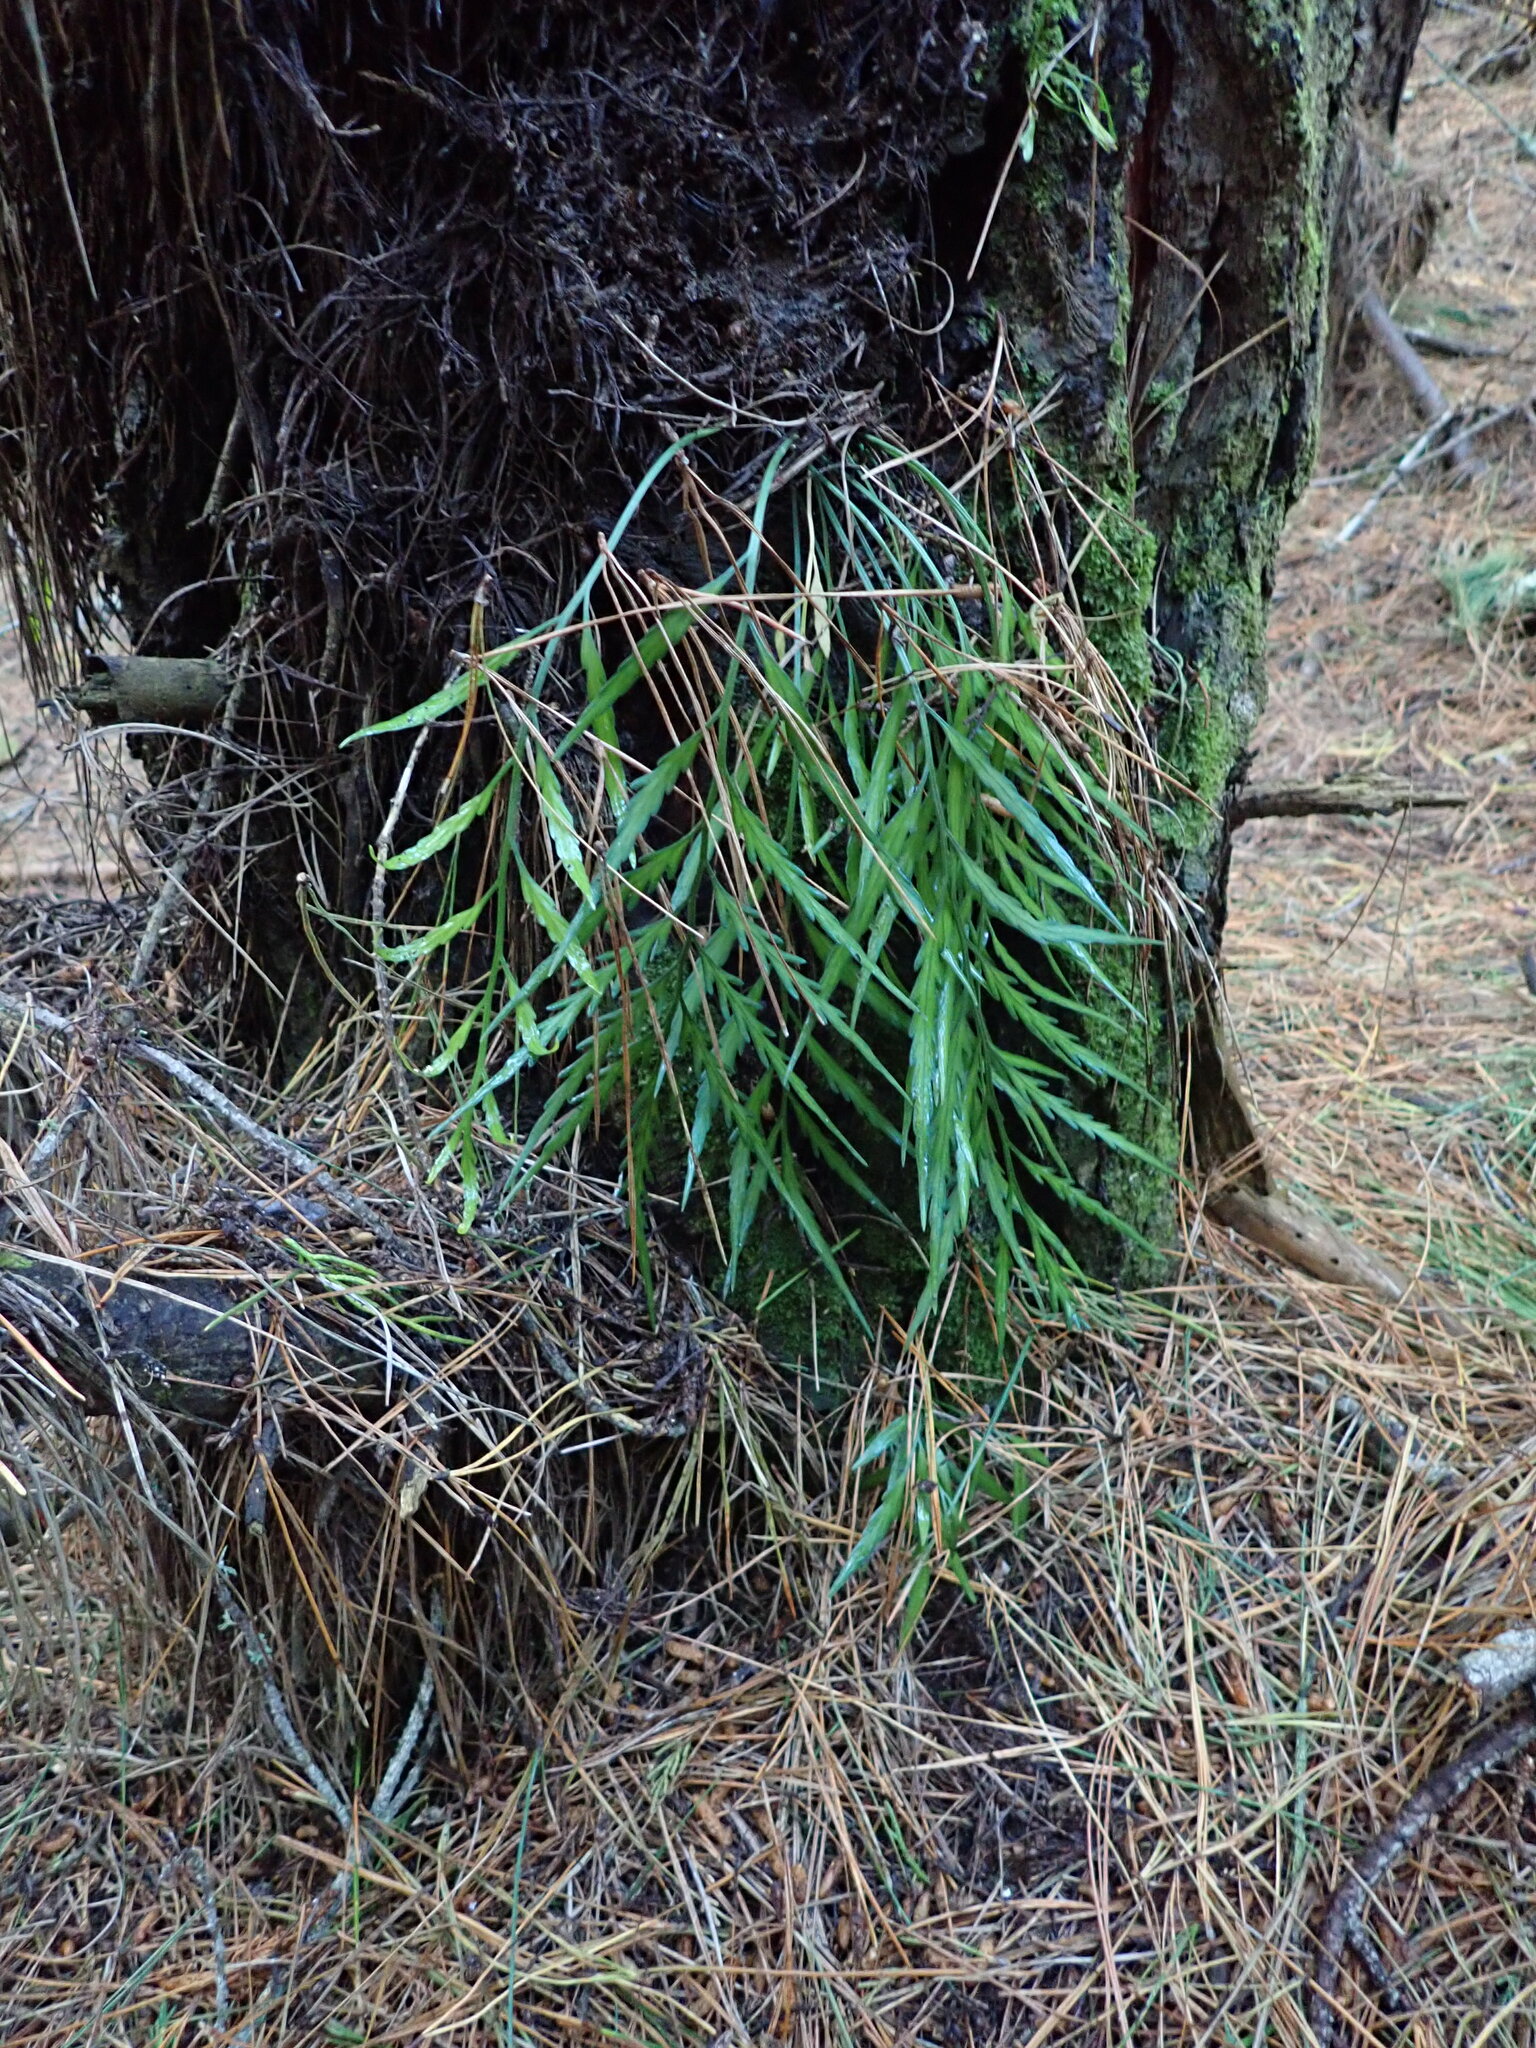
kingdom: Plantae
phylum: Tracheophyta
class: Polypodiopsida
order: Polypodiales
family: Aspleniaceae
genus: Asplenium
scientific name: Asplenium flaccidum
